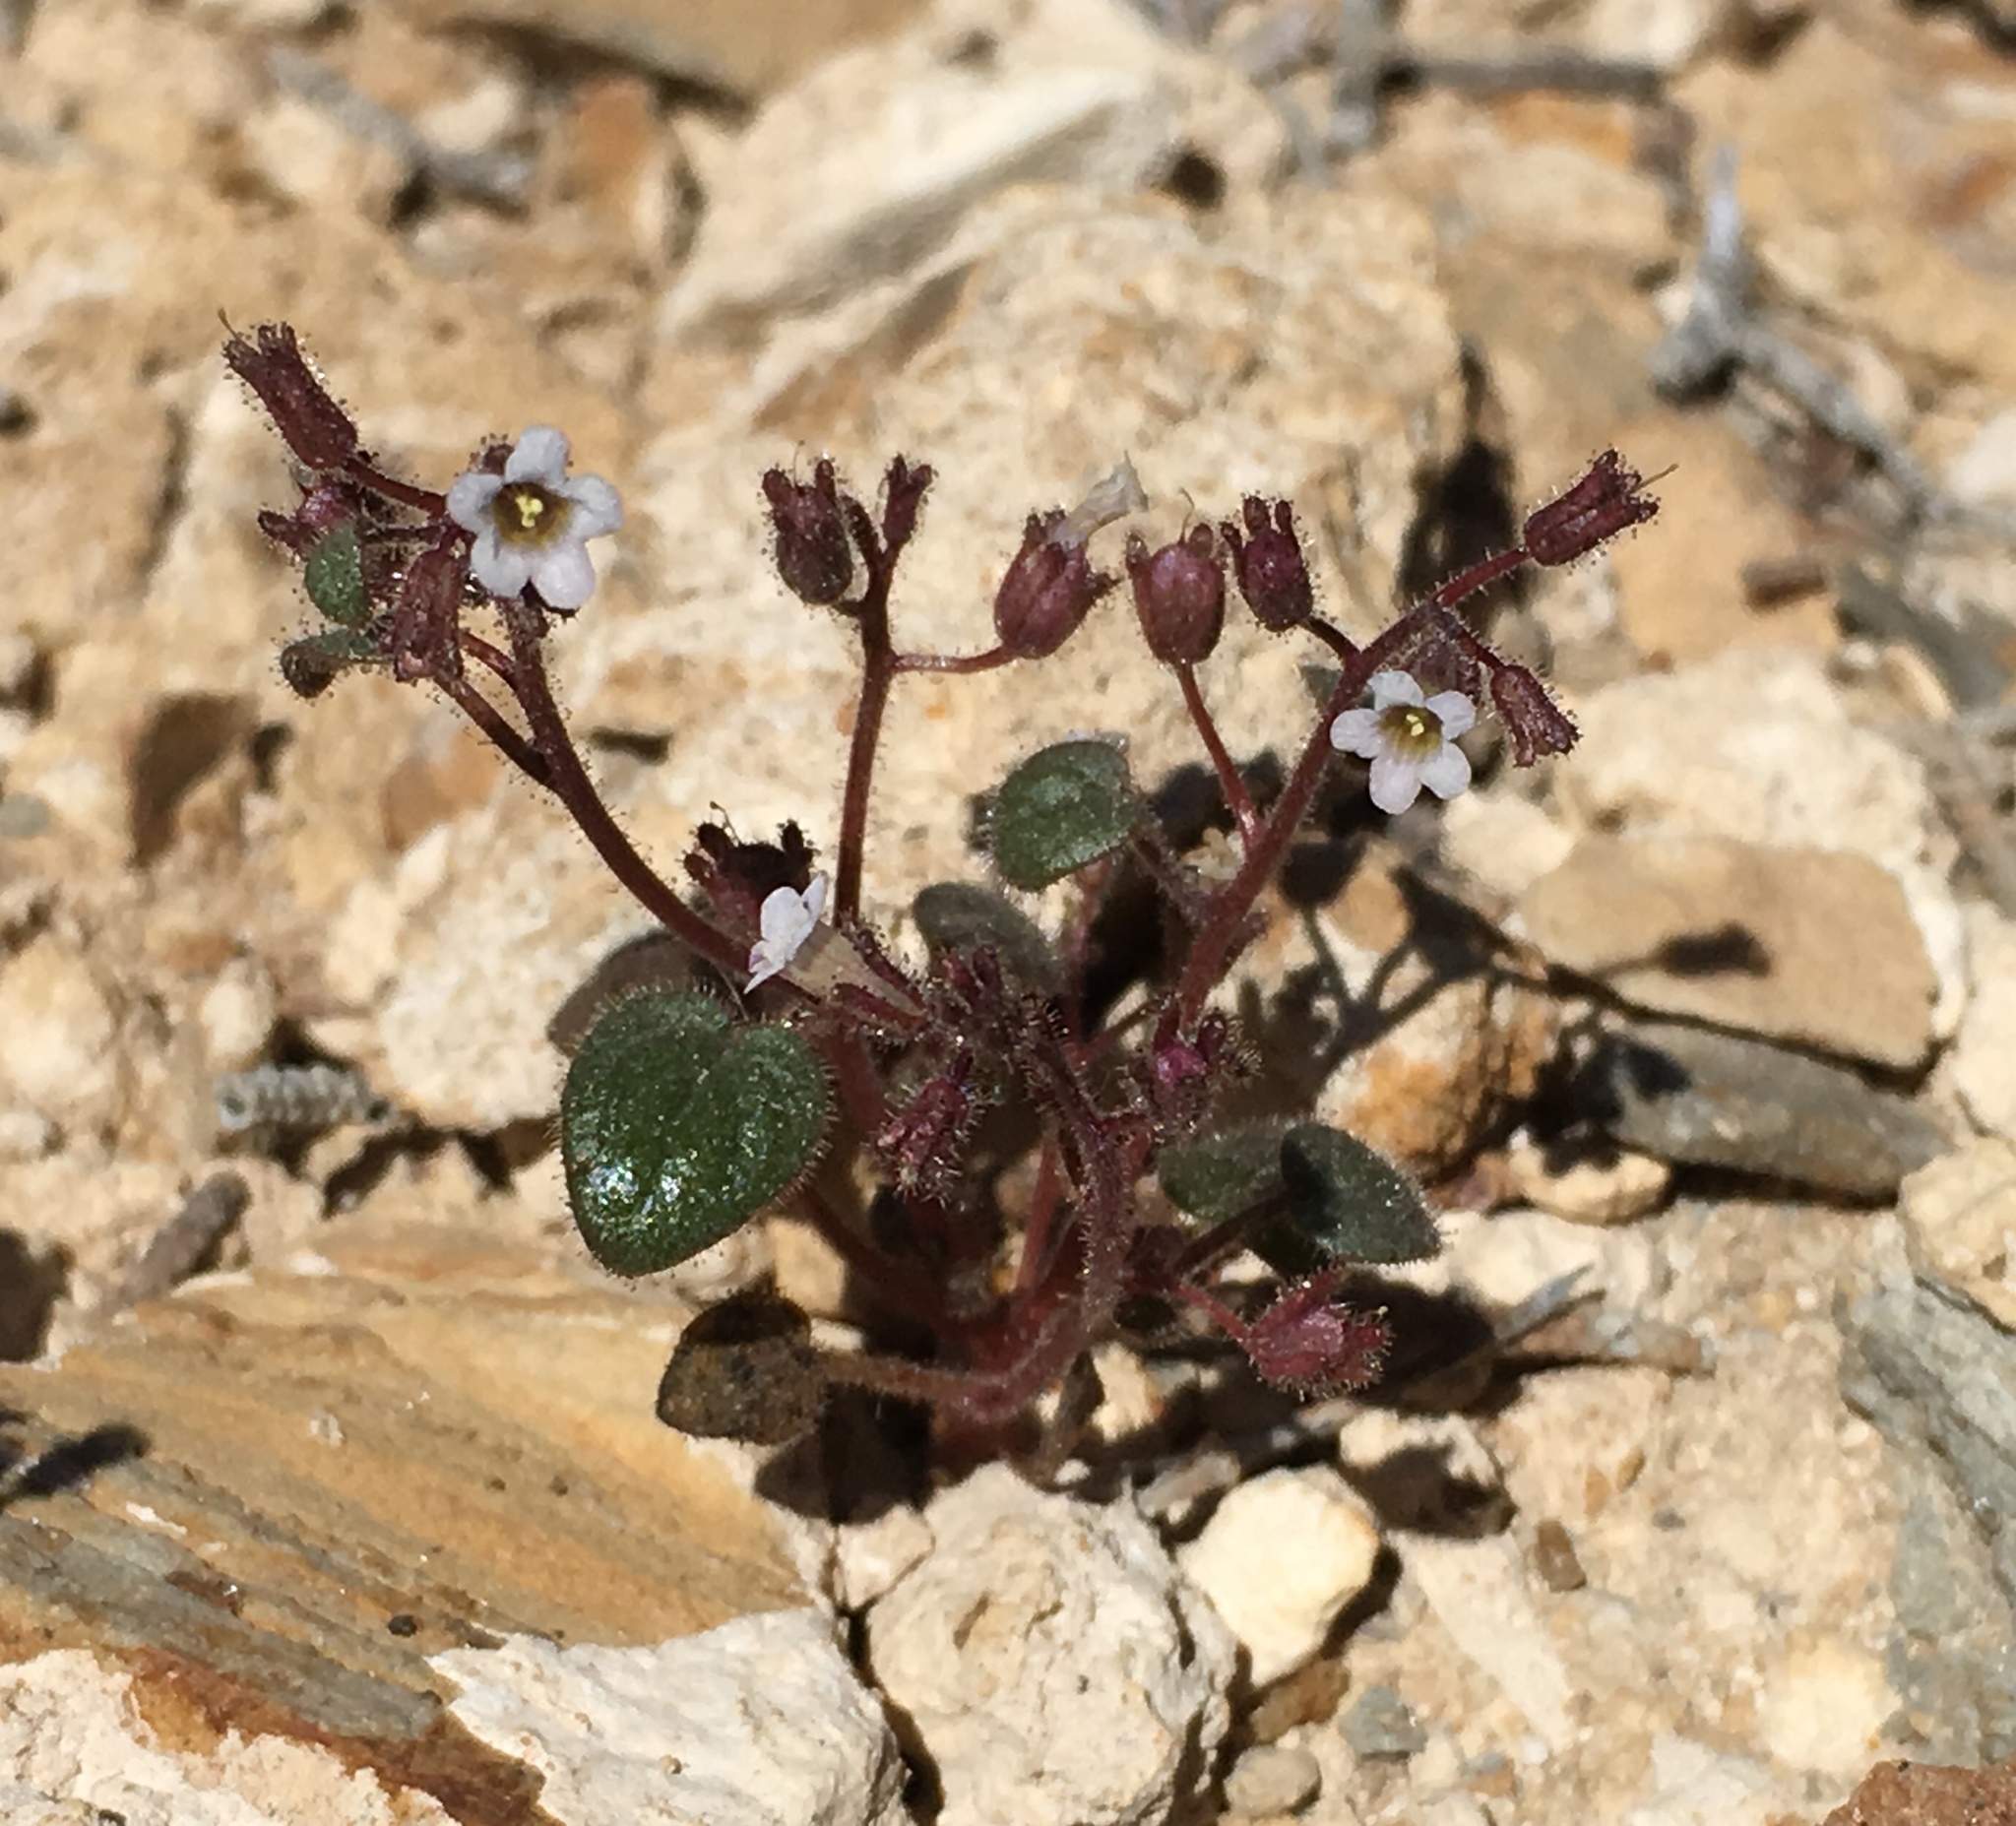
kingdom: Plantae
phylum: Tracheophyta
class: Magnoliopsida
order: Boraginales
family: Hydrophyllaceae
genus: Phacelia
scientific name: Phacelia barnebyana
